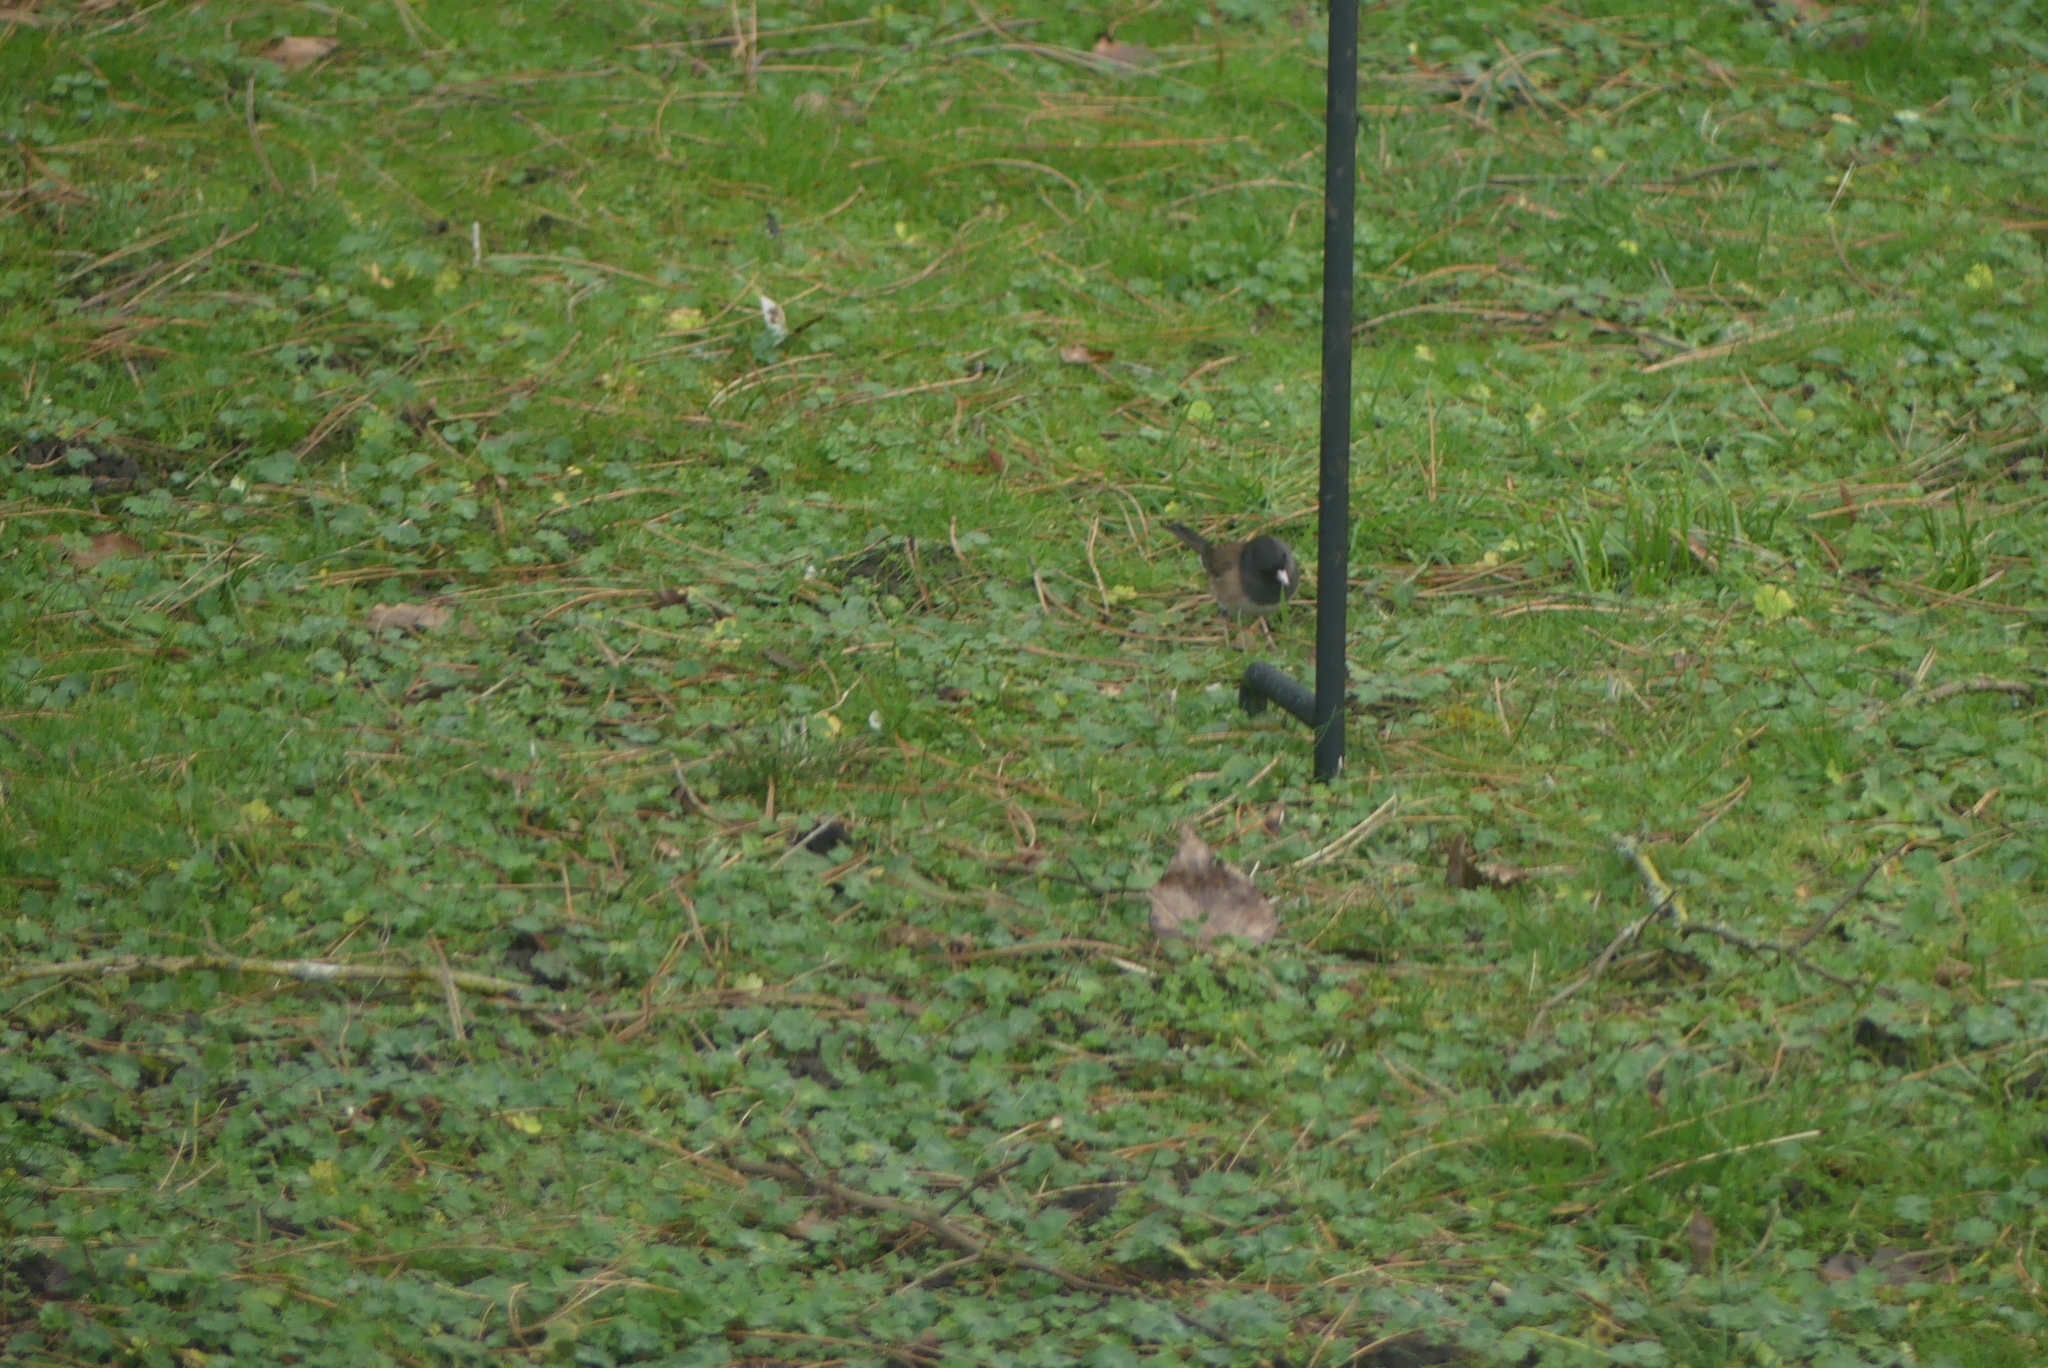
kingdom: Animalia
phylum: Chordata
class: Aves
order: Passeriformes
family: Passerellidae
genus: Junco
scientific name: Junco hyemalis
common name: Dark-eyed junco
